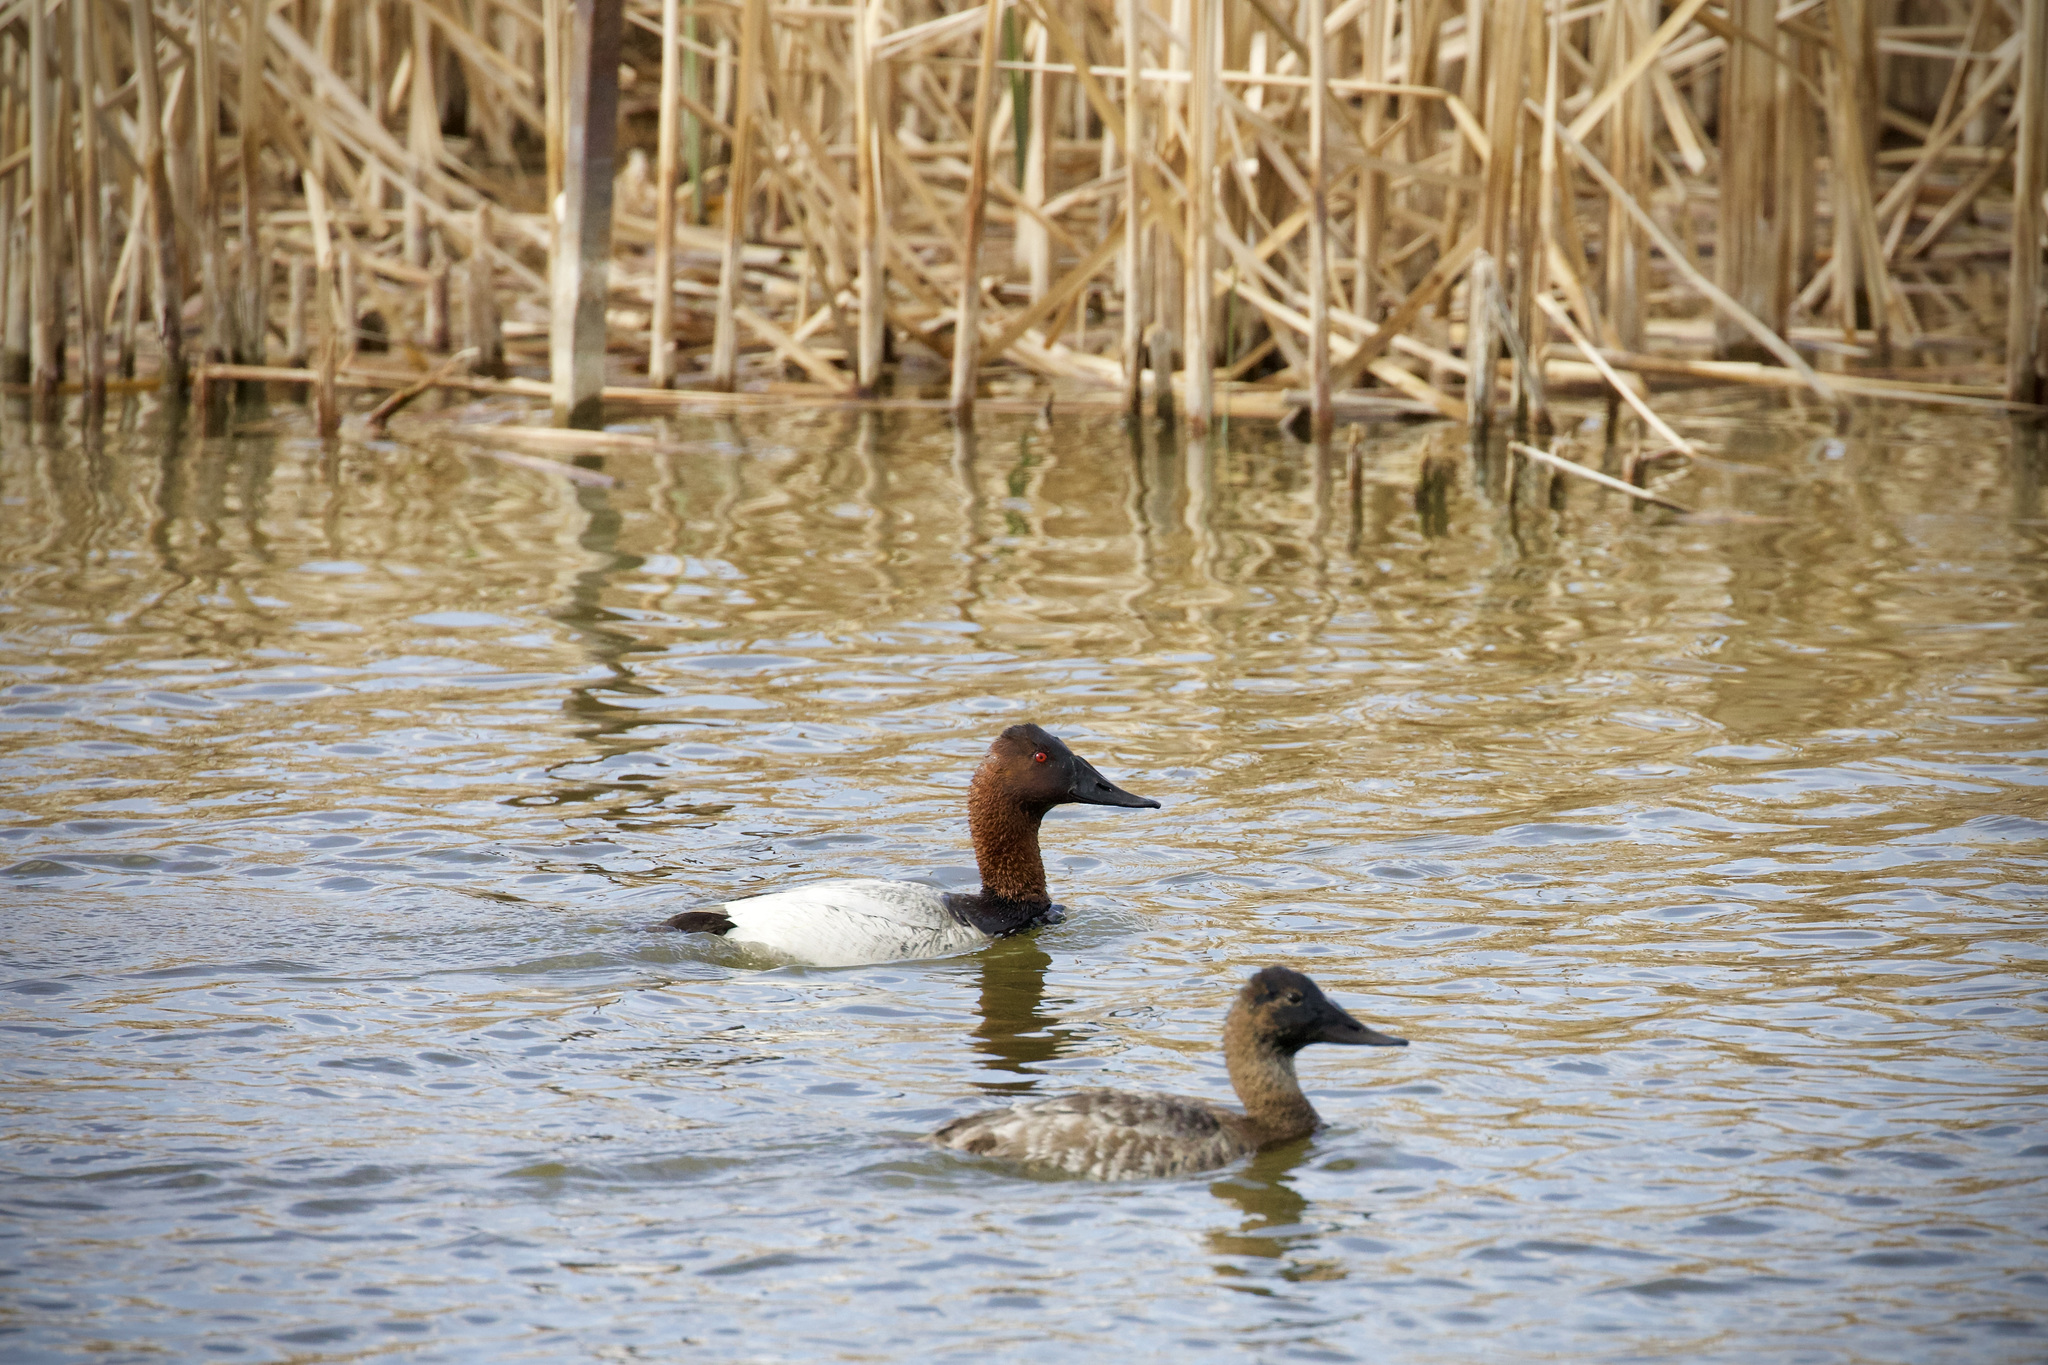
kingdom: Animalia
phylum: Chordata
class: Aves
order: Anseriformes
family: Anatidae
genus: Aythya
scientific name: Aythya valisineria
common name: Canvasback
